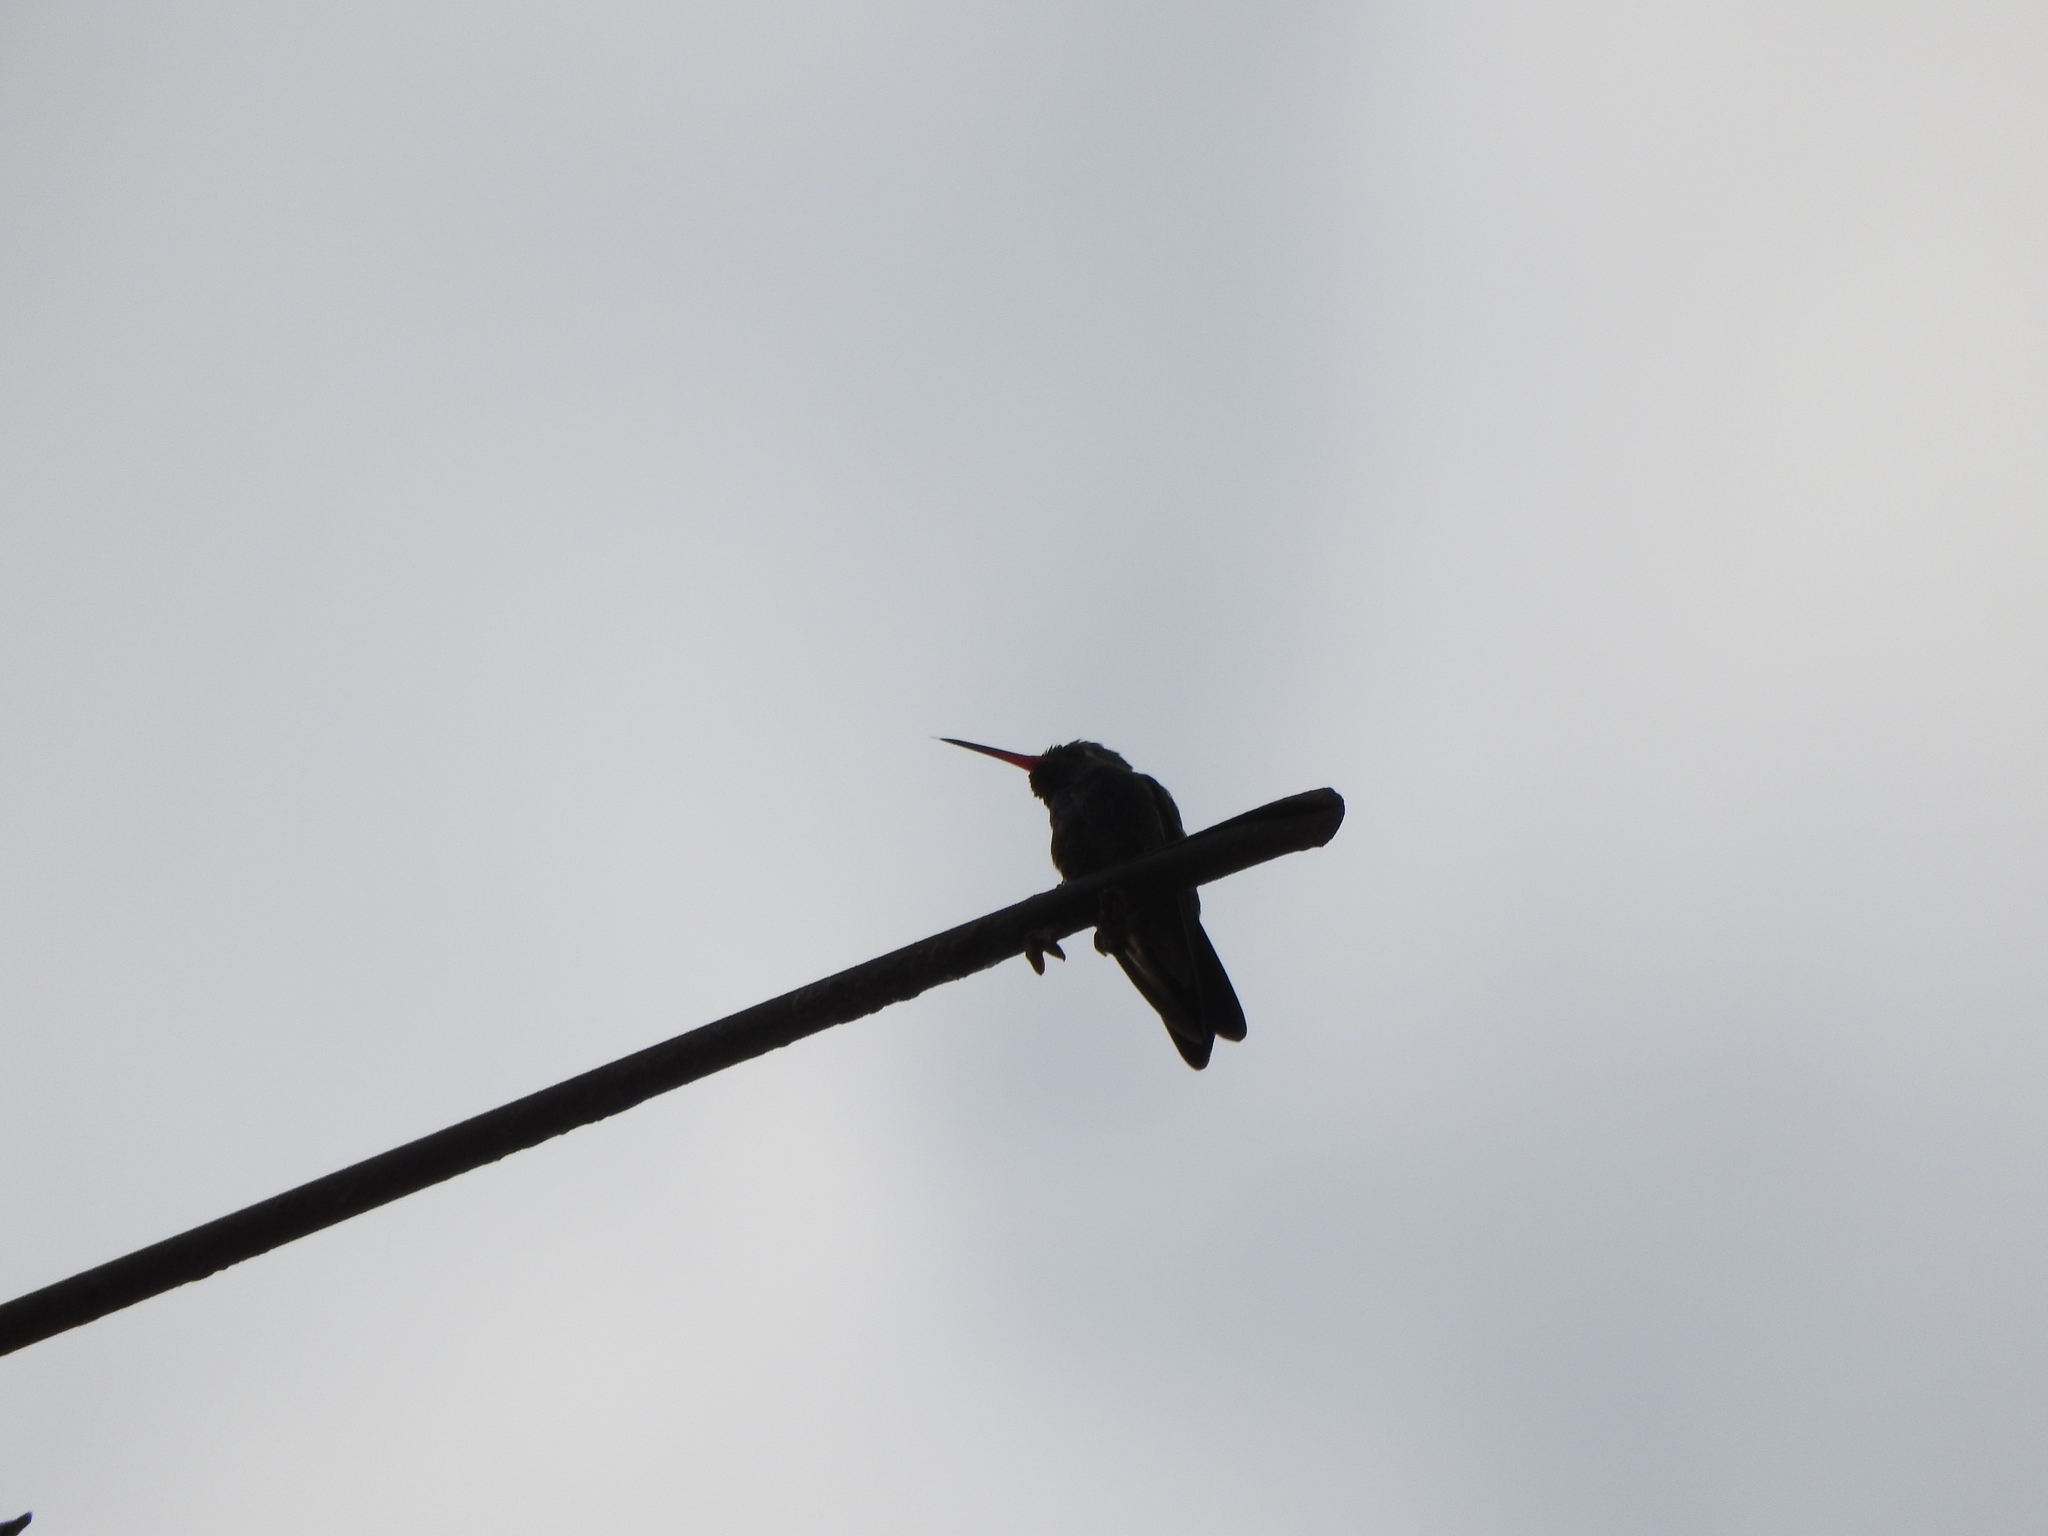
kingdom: Animalia
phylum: Chordata
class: Aves
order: Apodiformes
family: Trochilidae
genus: Cynanthus
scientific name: Cynanthus latirostris
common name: Broad-billed hummingbird
